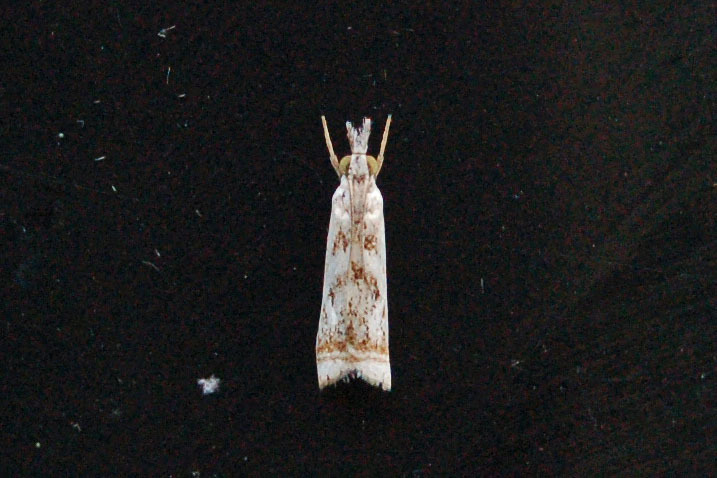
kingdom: Animalia
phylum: Arthropoda
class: Insecta
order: Lepidoptera
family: Crambidae
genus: Microcrambus
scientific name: Microcrambus elegans
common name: Elegant grass-veneer
